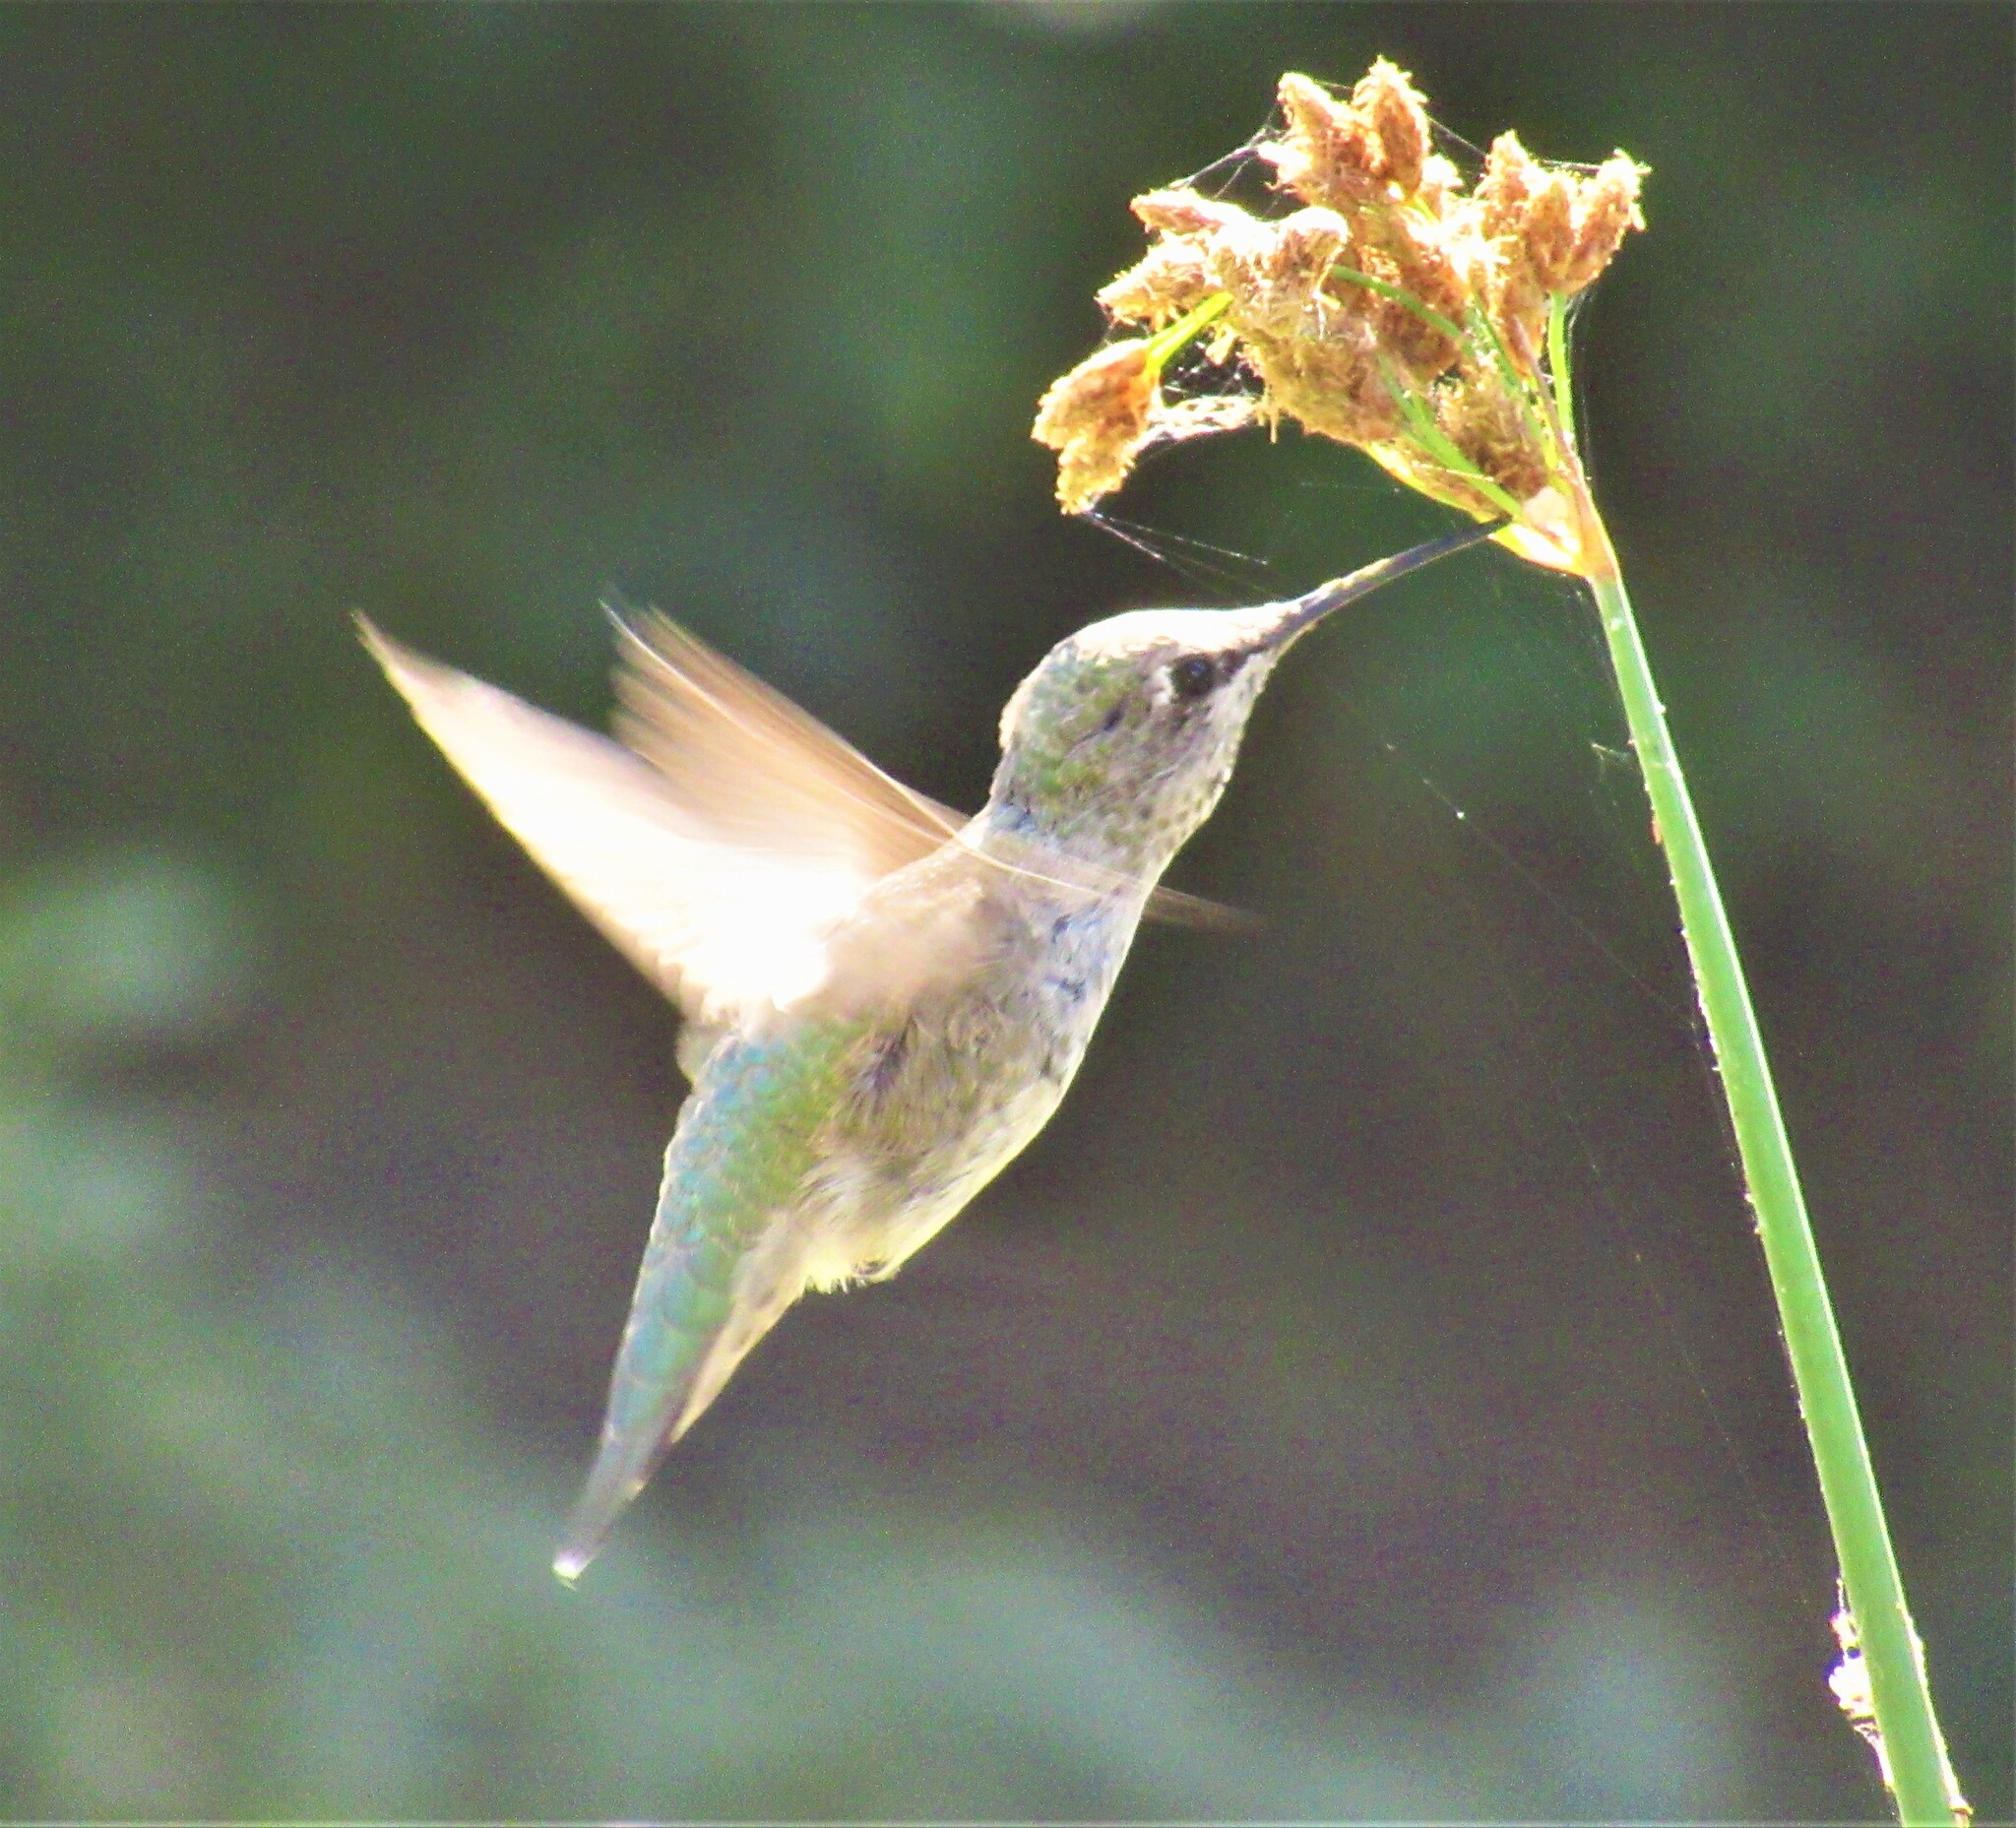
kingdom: Animalia
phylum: Chordata
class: Aves
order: Apodiformes
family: Trochilidae
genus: Calypte
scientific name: Calypte anna
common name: Anna's hummingbird
